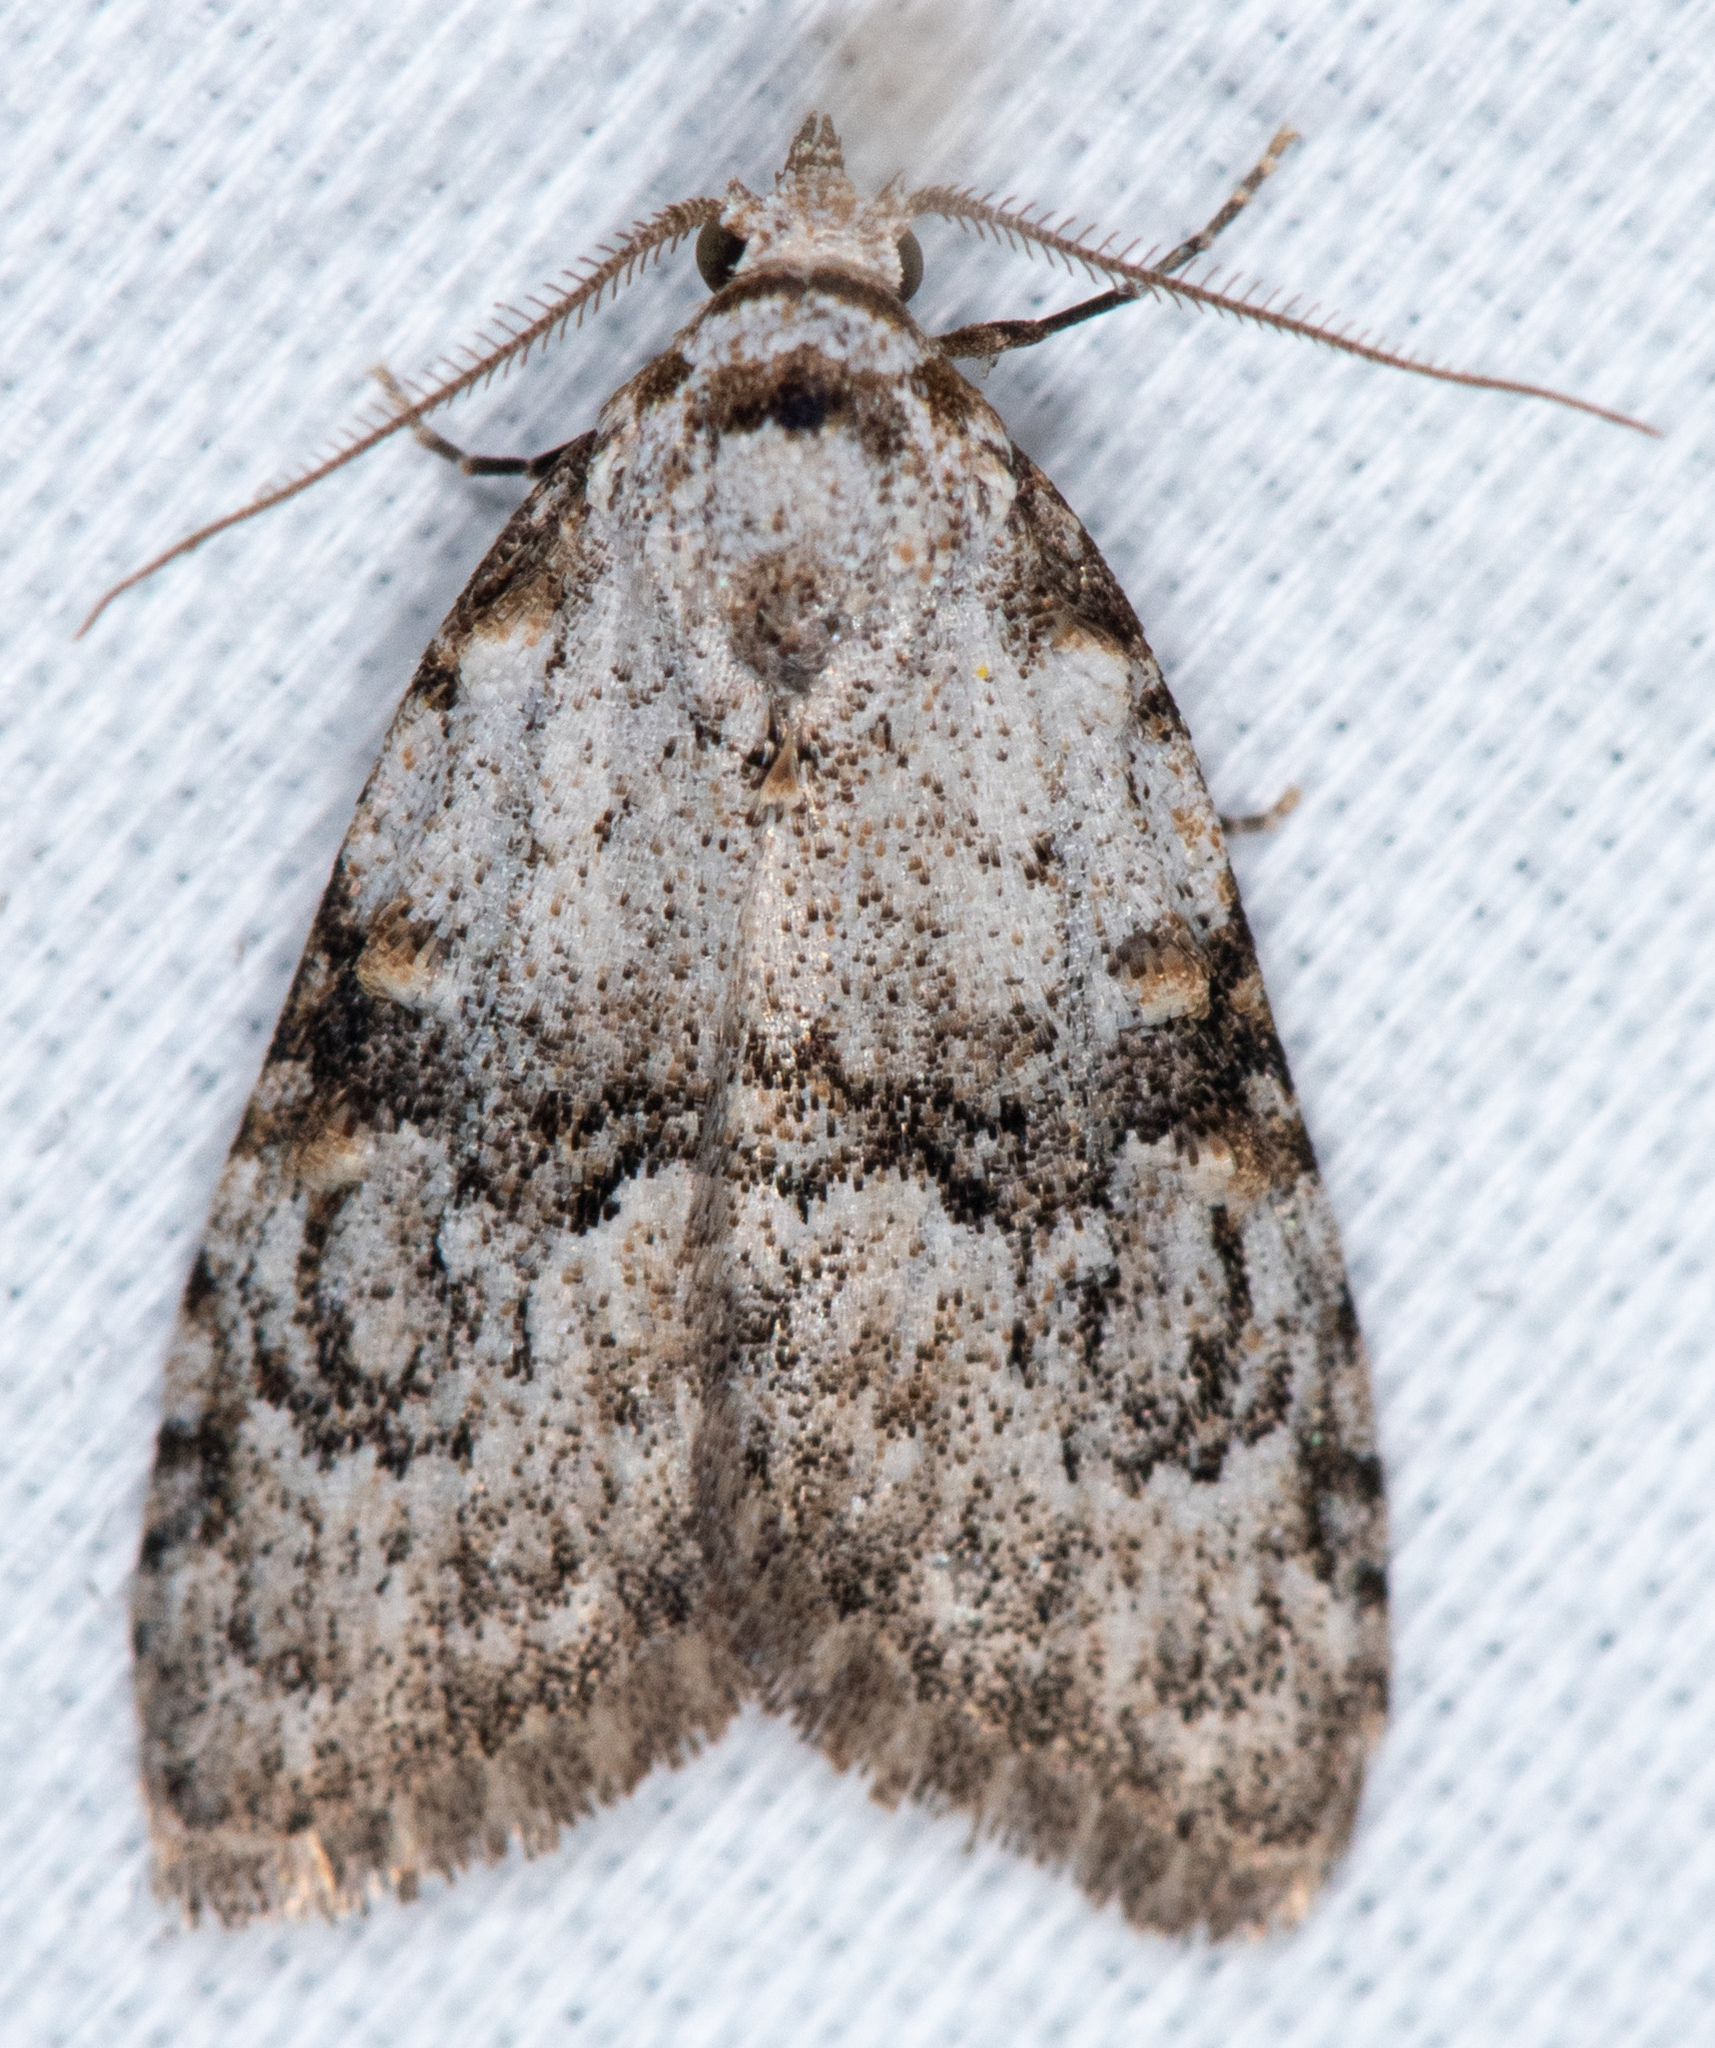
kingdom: Animalia
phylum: Arthropoda
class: Insecta
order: Lepidoptera
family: Nolidae
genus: Meganola
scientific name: Meganola minuscula
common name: Confused meganola moth
